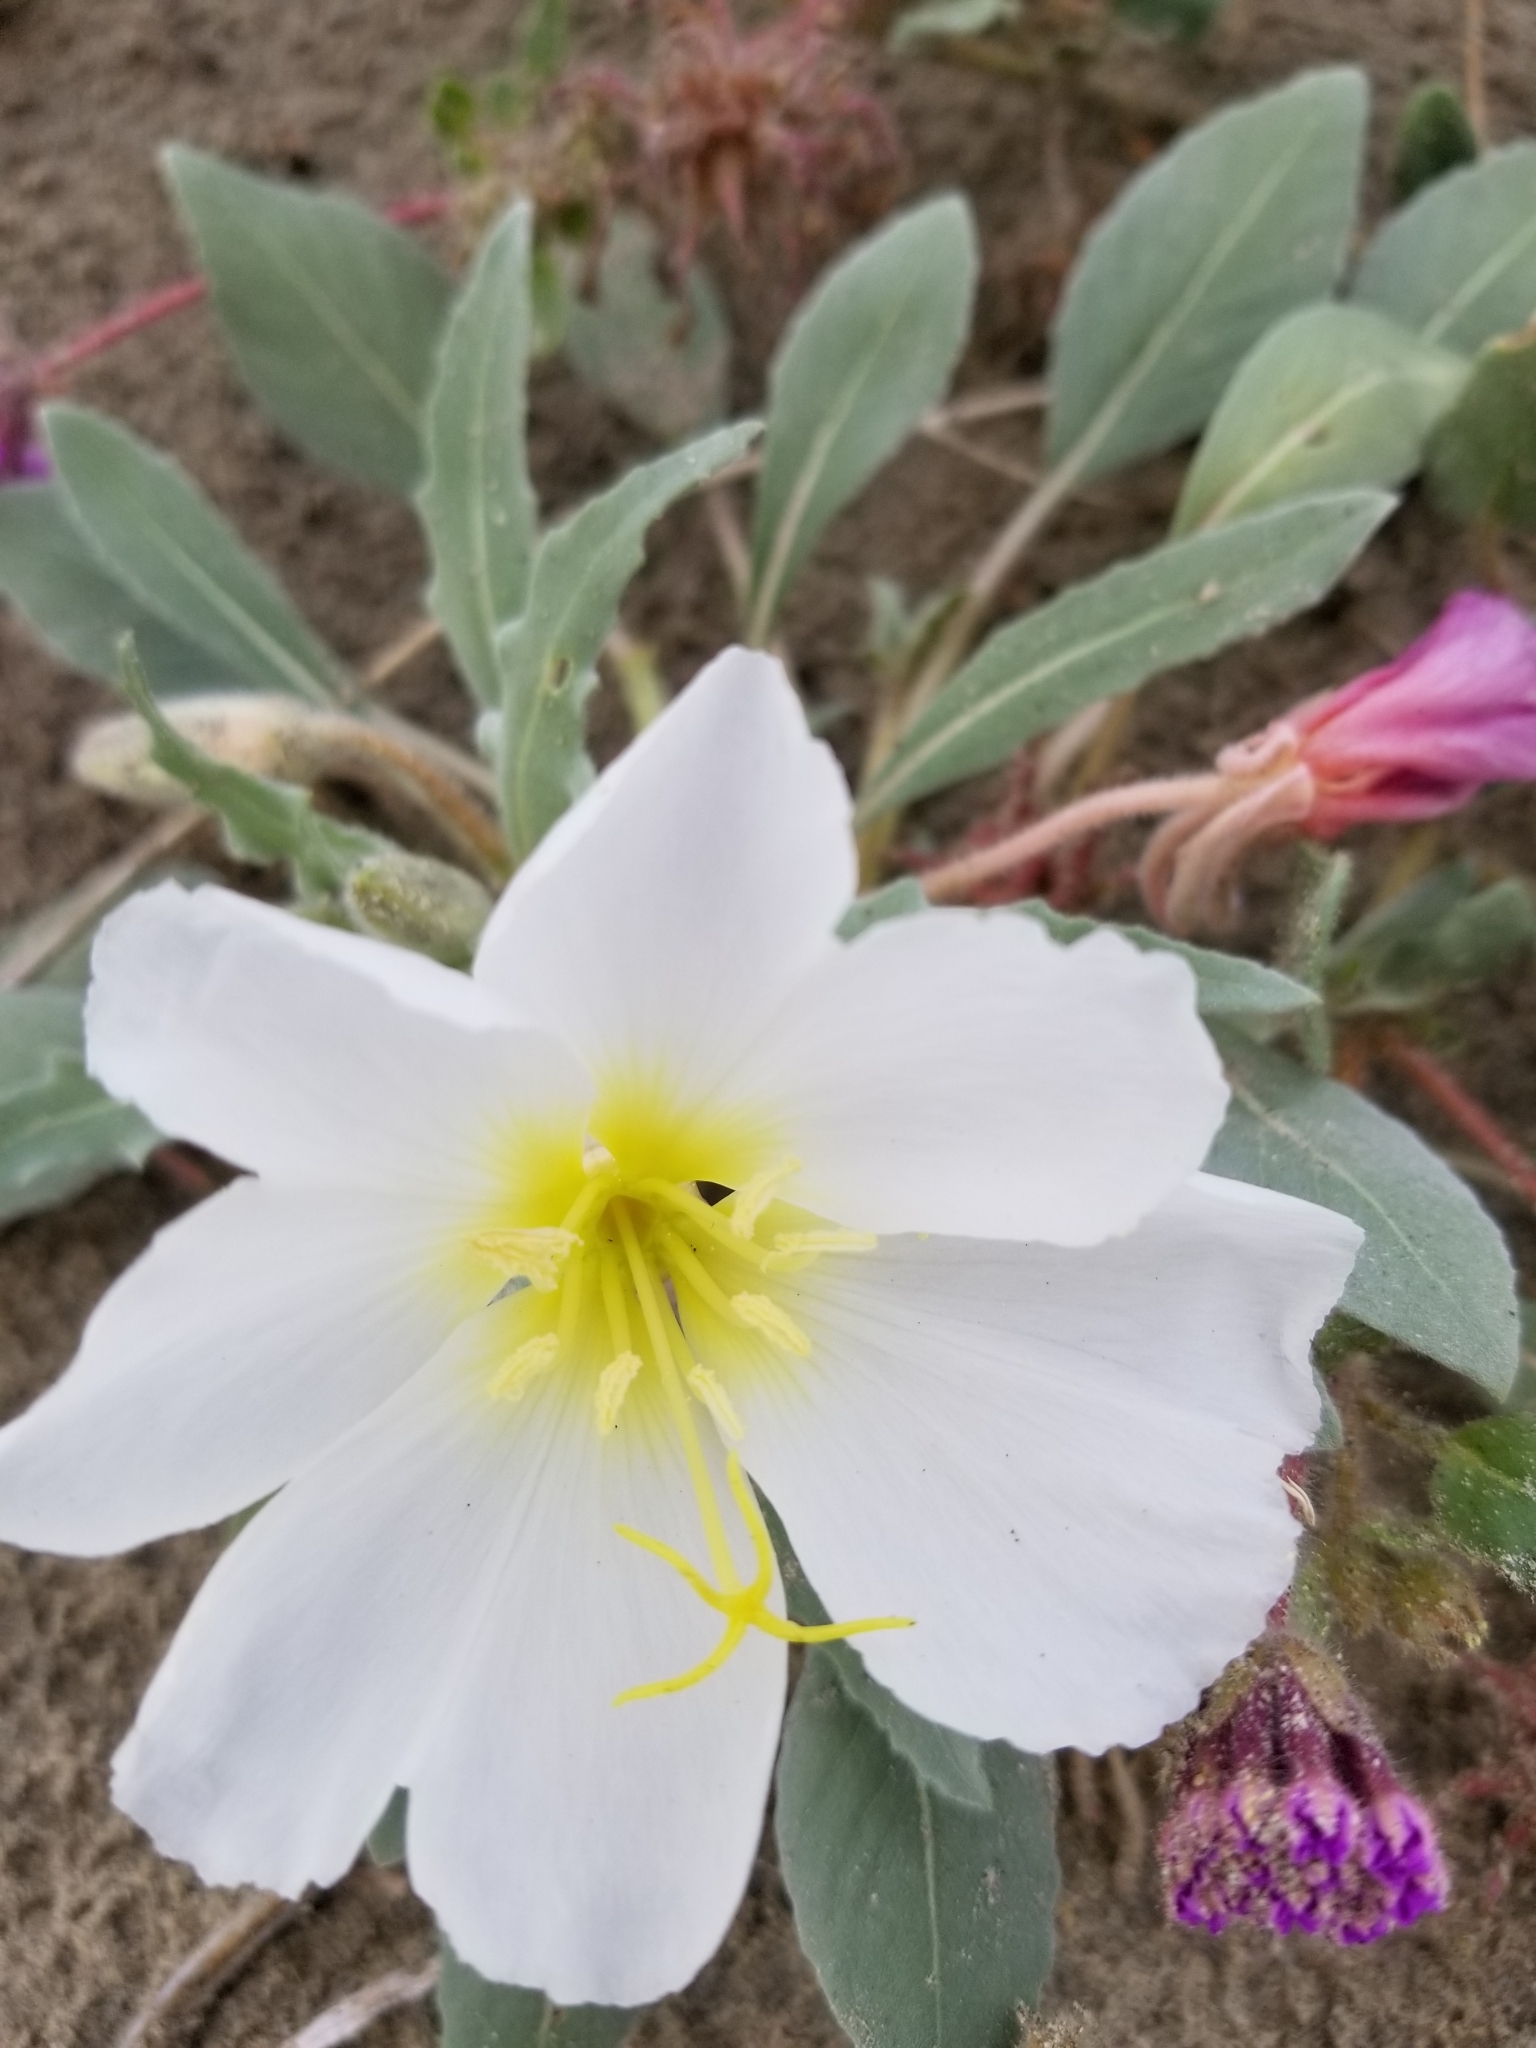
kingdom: Plantae
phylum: Tracheophyta
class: Magnoliopsida
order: Myrtales
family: Onagraceae
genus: Oenothera
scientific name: Oenothera deltoides
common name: Basket evening-primrose
